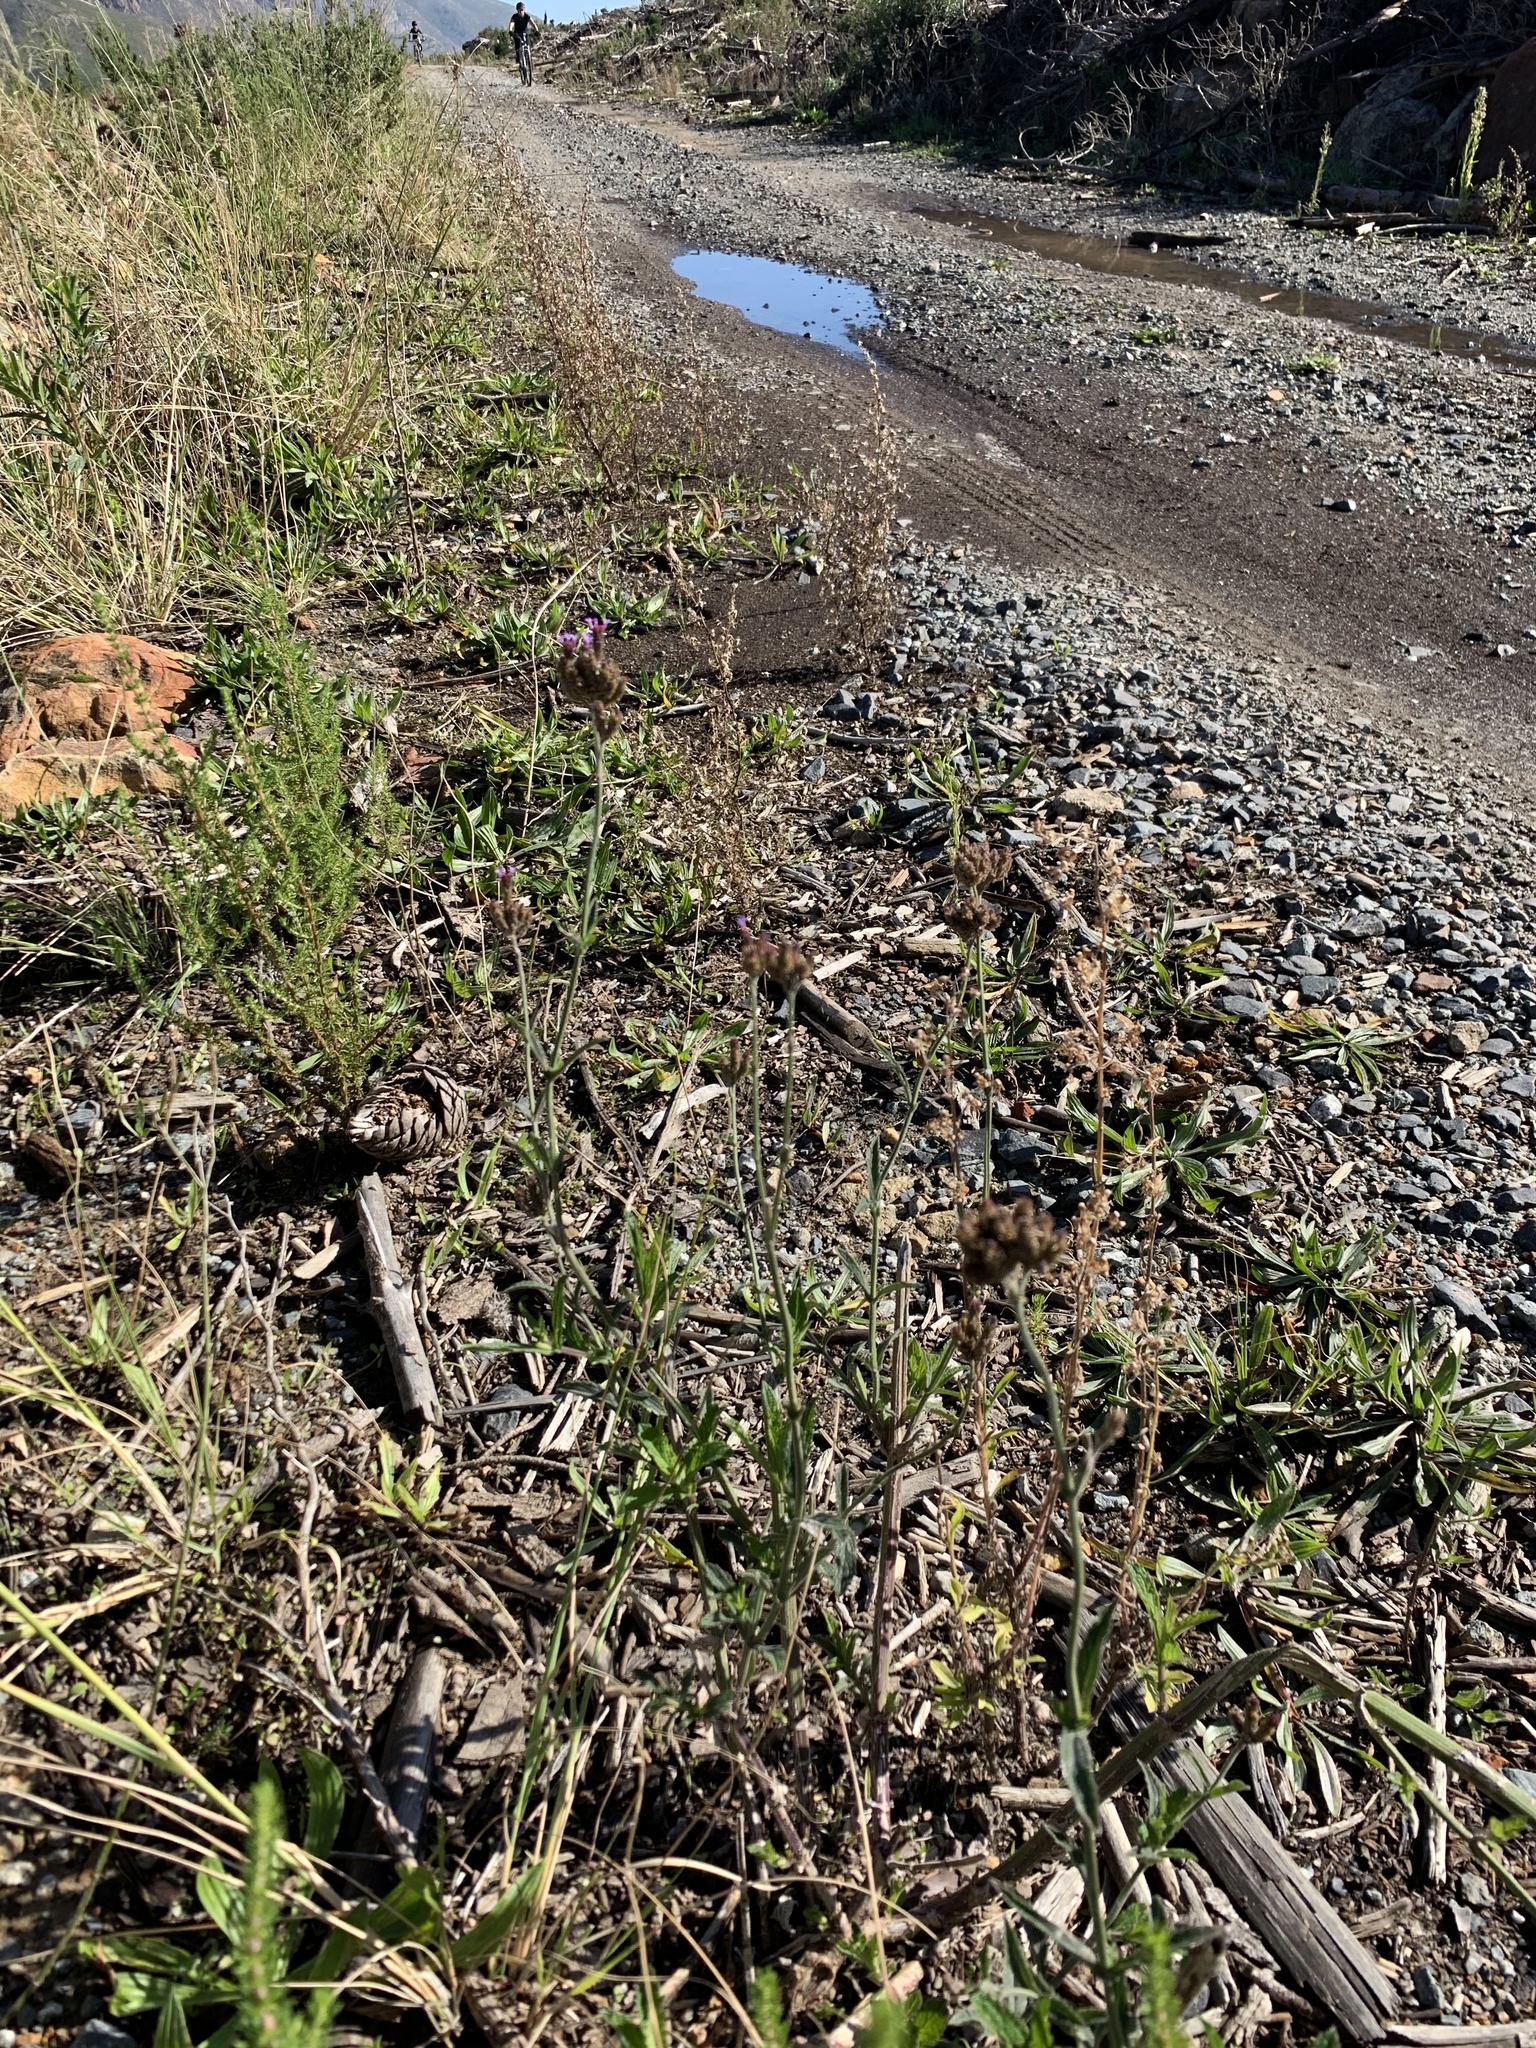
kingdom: Plantae
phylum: Tracheophyta
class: Magnoliopsida
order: Lamiales
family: Verbenaceae
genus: Verbena
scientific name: Verbena bonariensis
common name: Purpletop vervain
